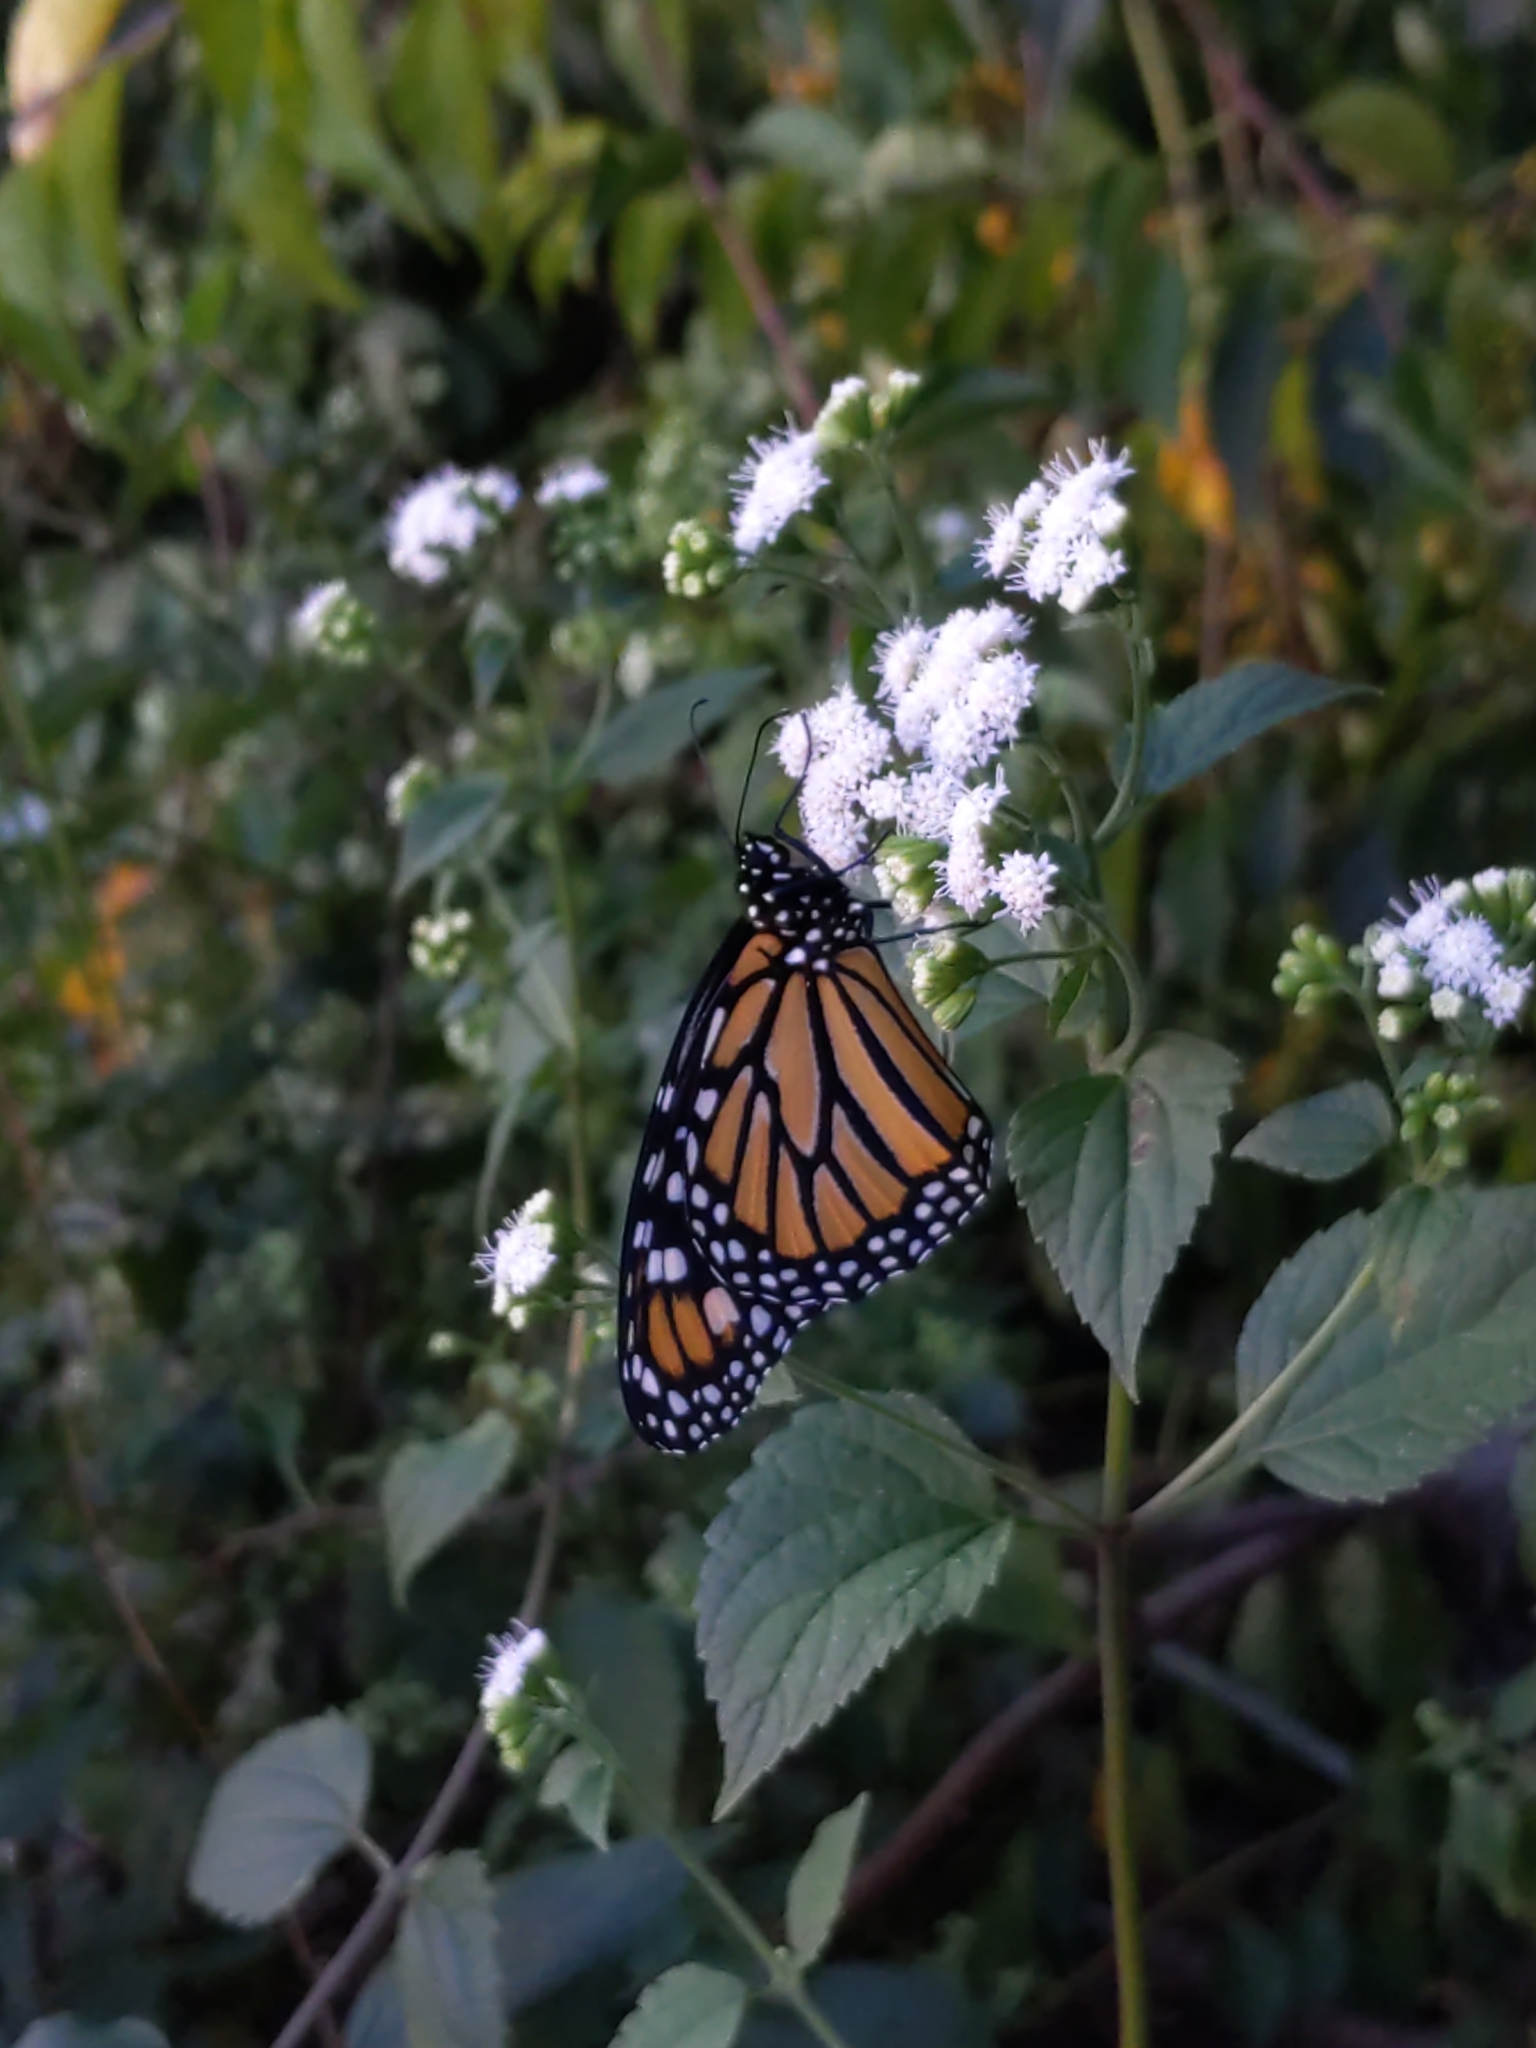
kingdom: Animalia
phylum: Arthropoda
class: Insecta
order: Lepidoptera
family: Nymphalidae
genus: Danaus
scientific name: Danaus plexippus
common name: Monarch
